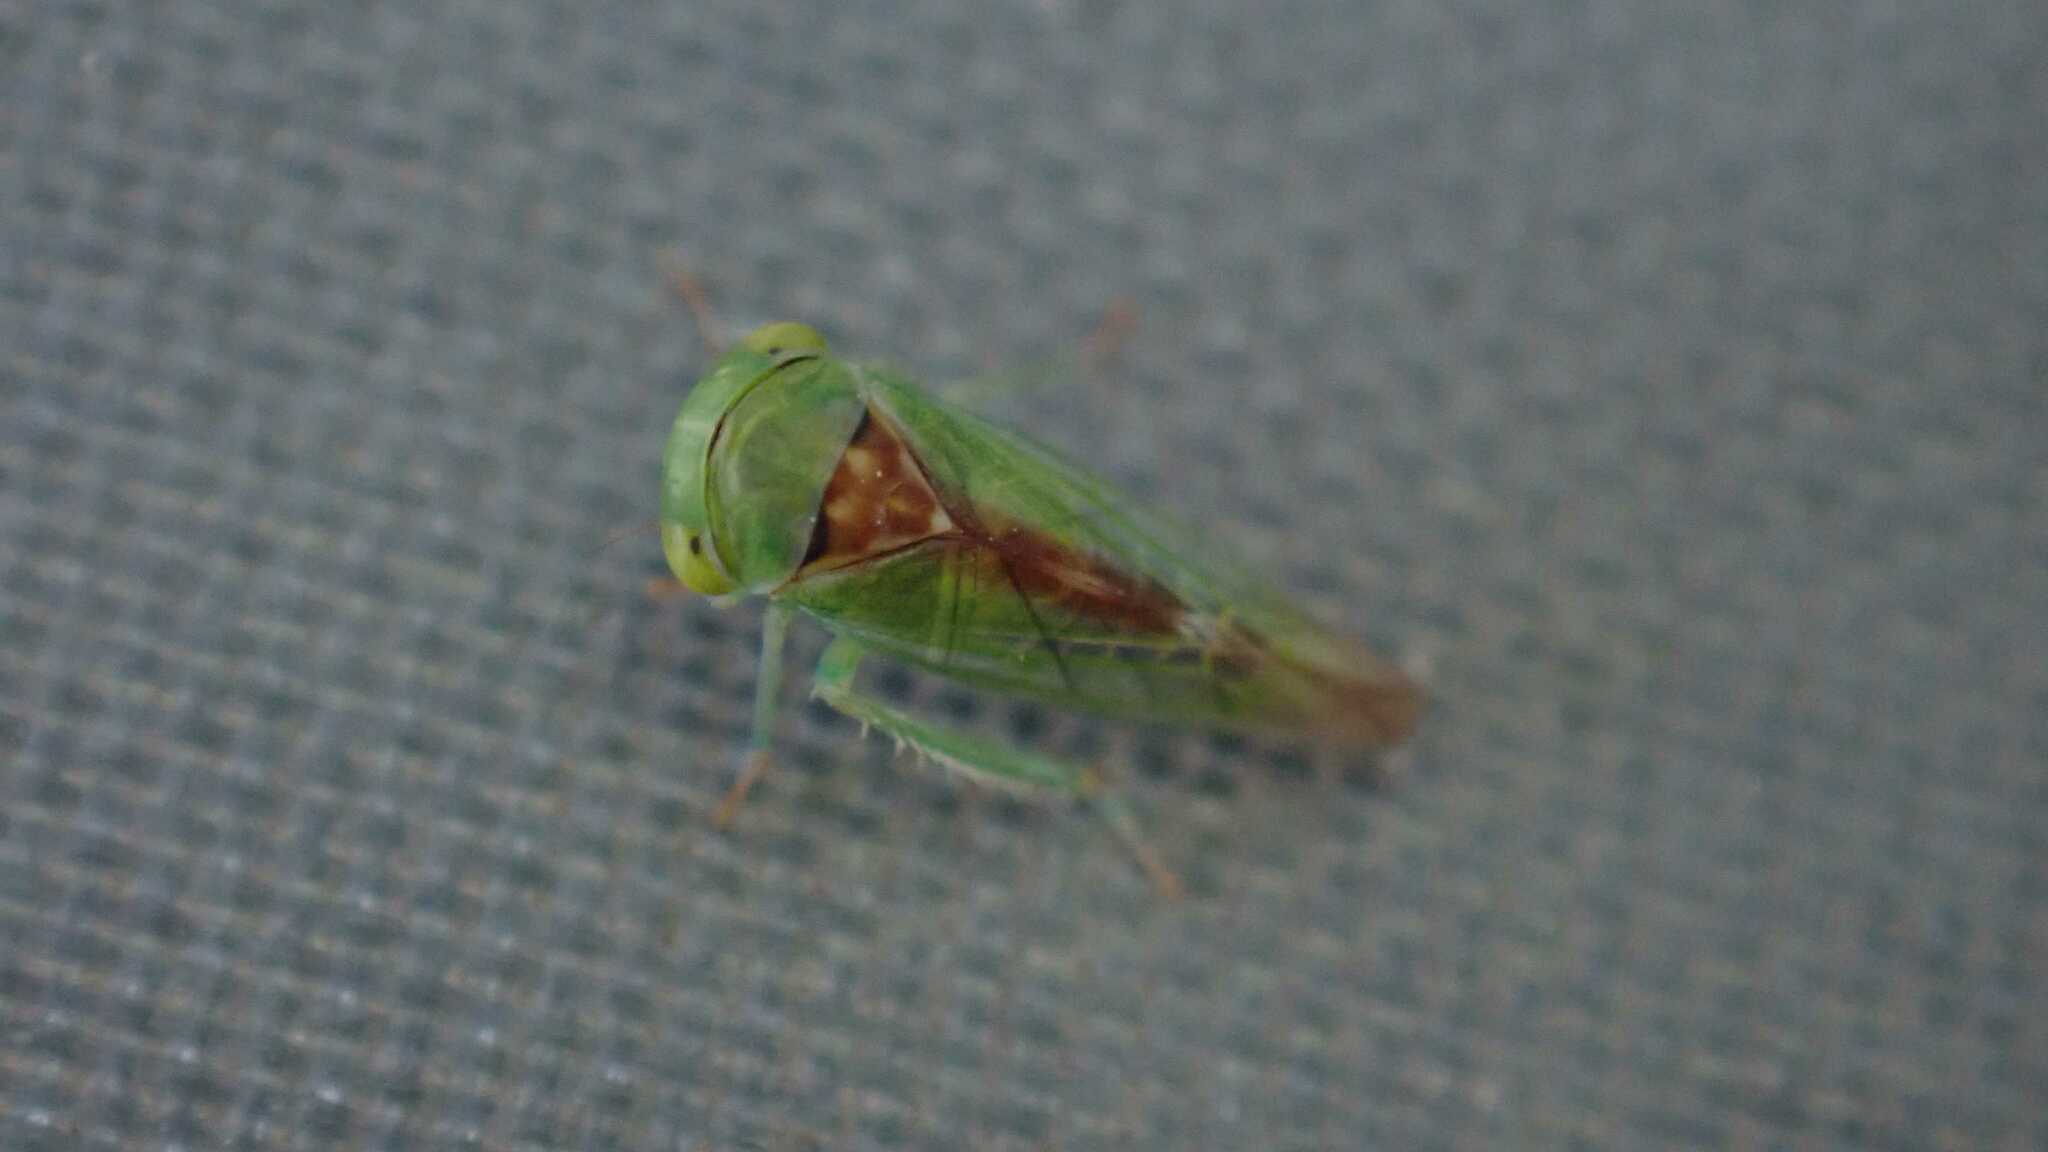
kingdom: Animalia
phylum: Arthropoda
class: Insecta
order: Hemiptera
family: Cicadellidae
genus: Viridicerus
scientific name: Viridicerus ustulatus
